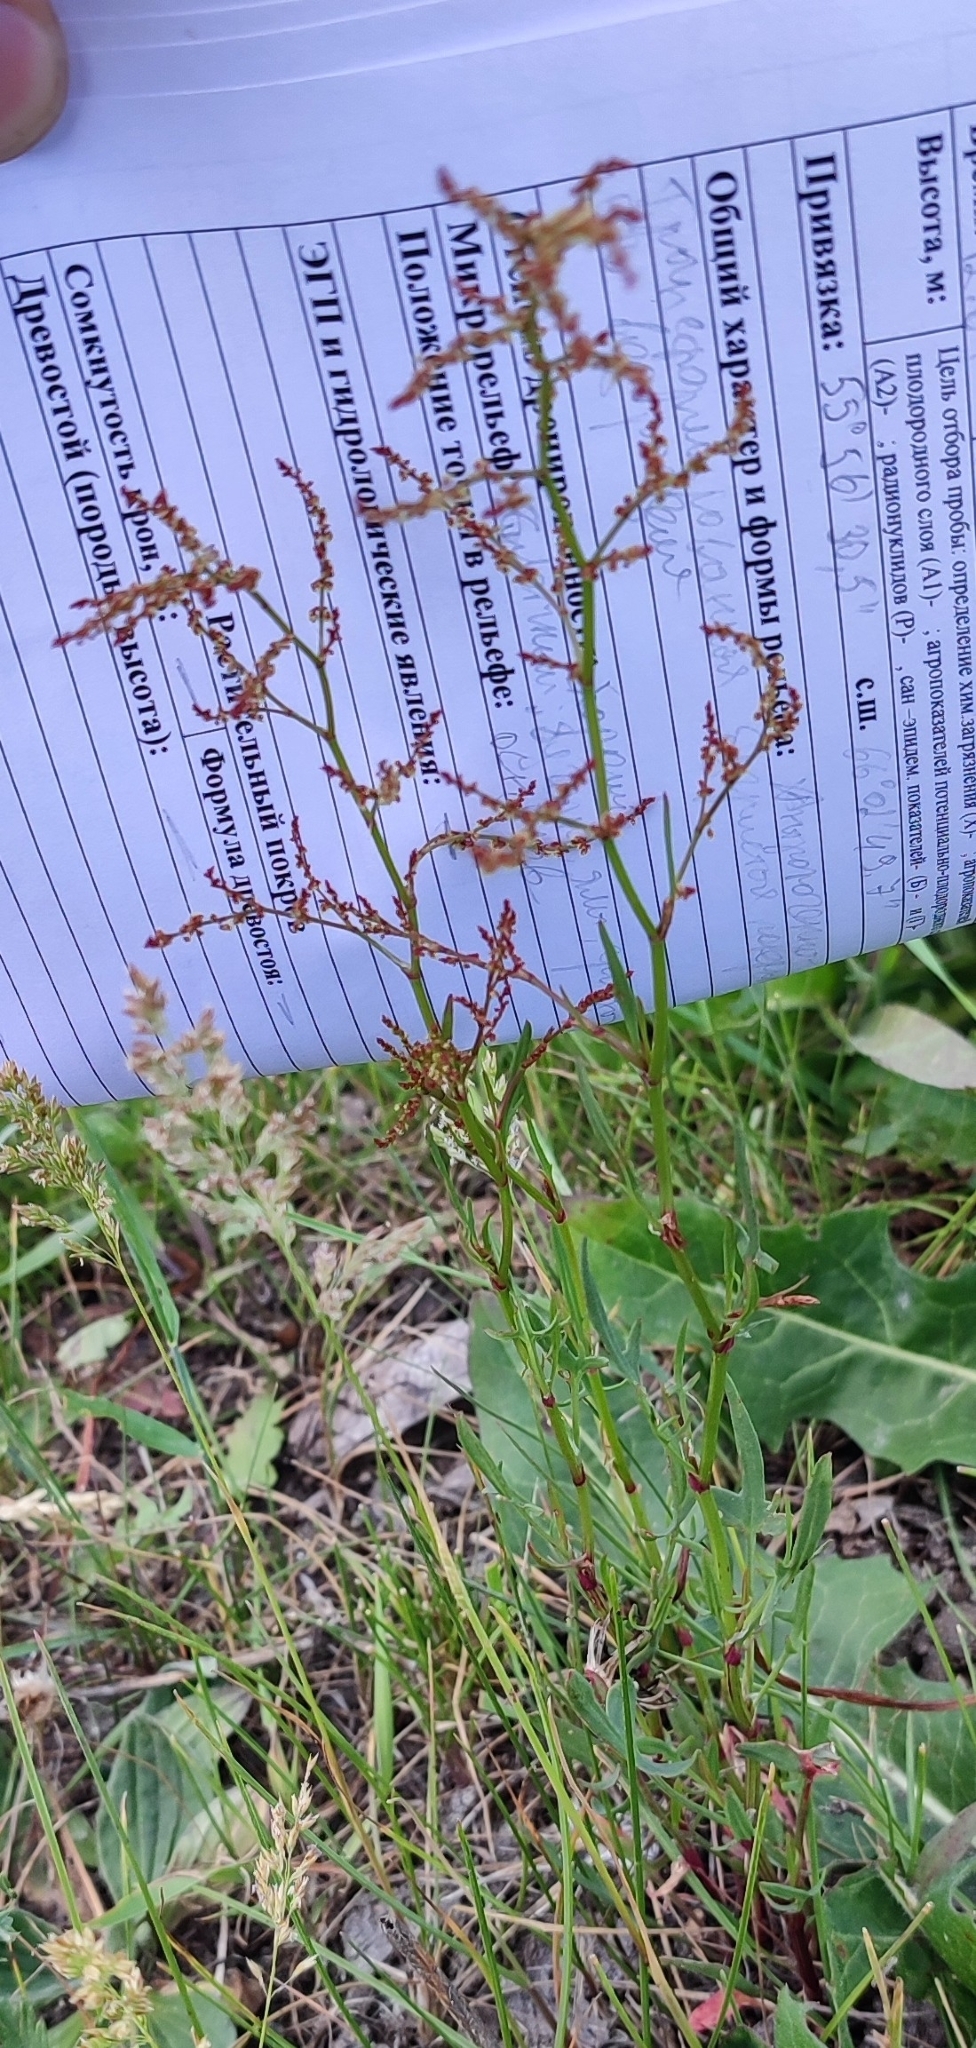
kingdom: Plantae
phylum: Tracheophyta
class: Magnoliopsida
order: Caryophyllales
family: Polygonaceae
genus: Rumex
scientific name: Rumex acetosella
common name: Common sheep sorrel
